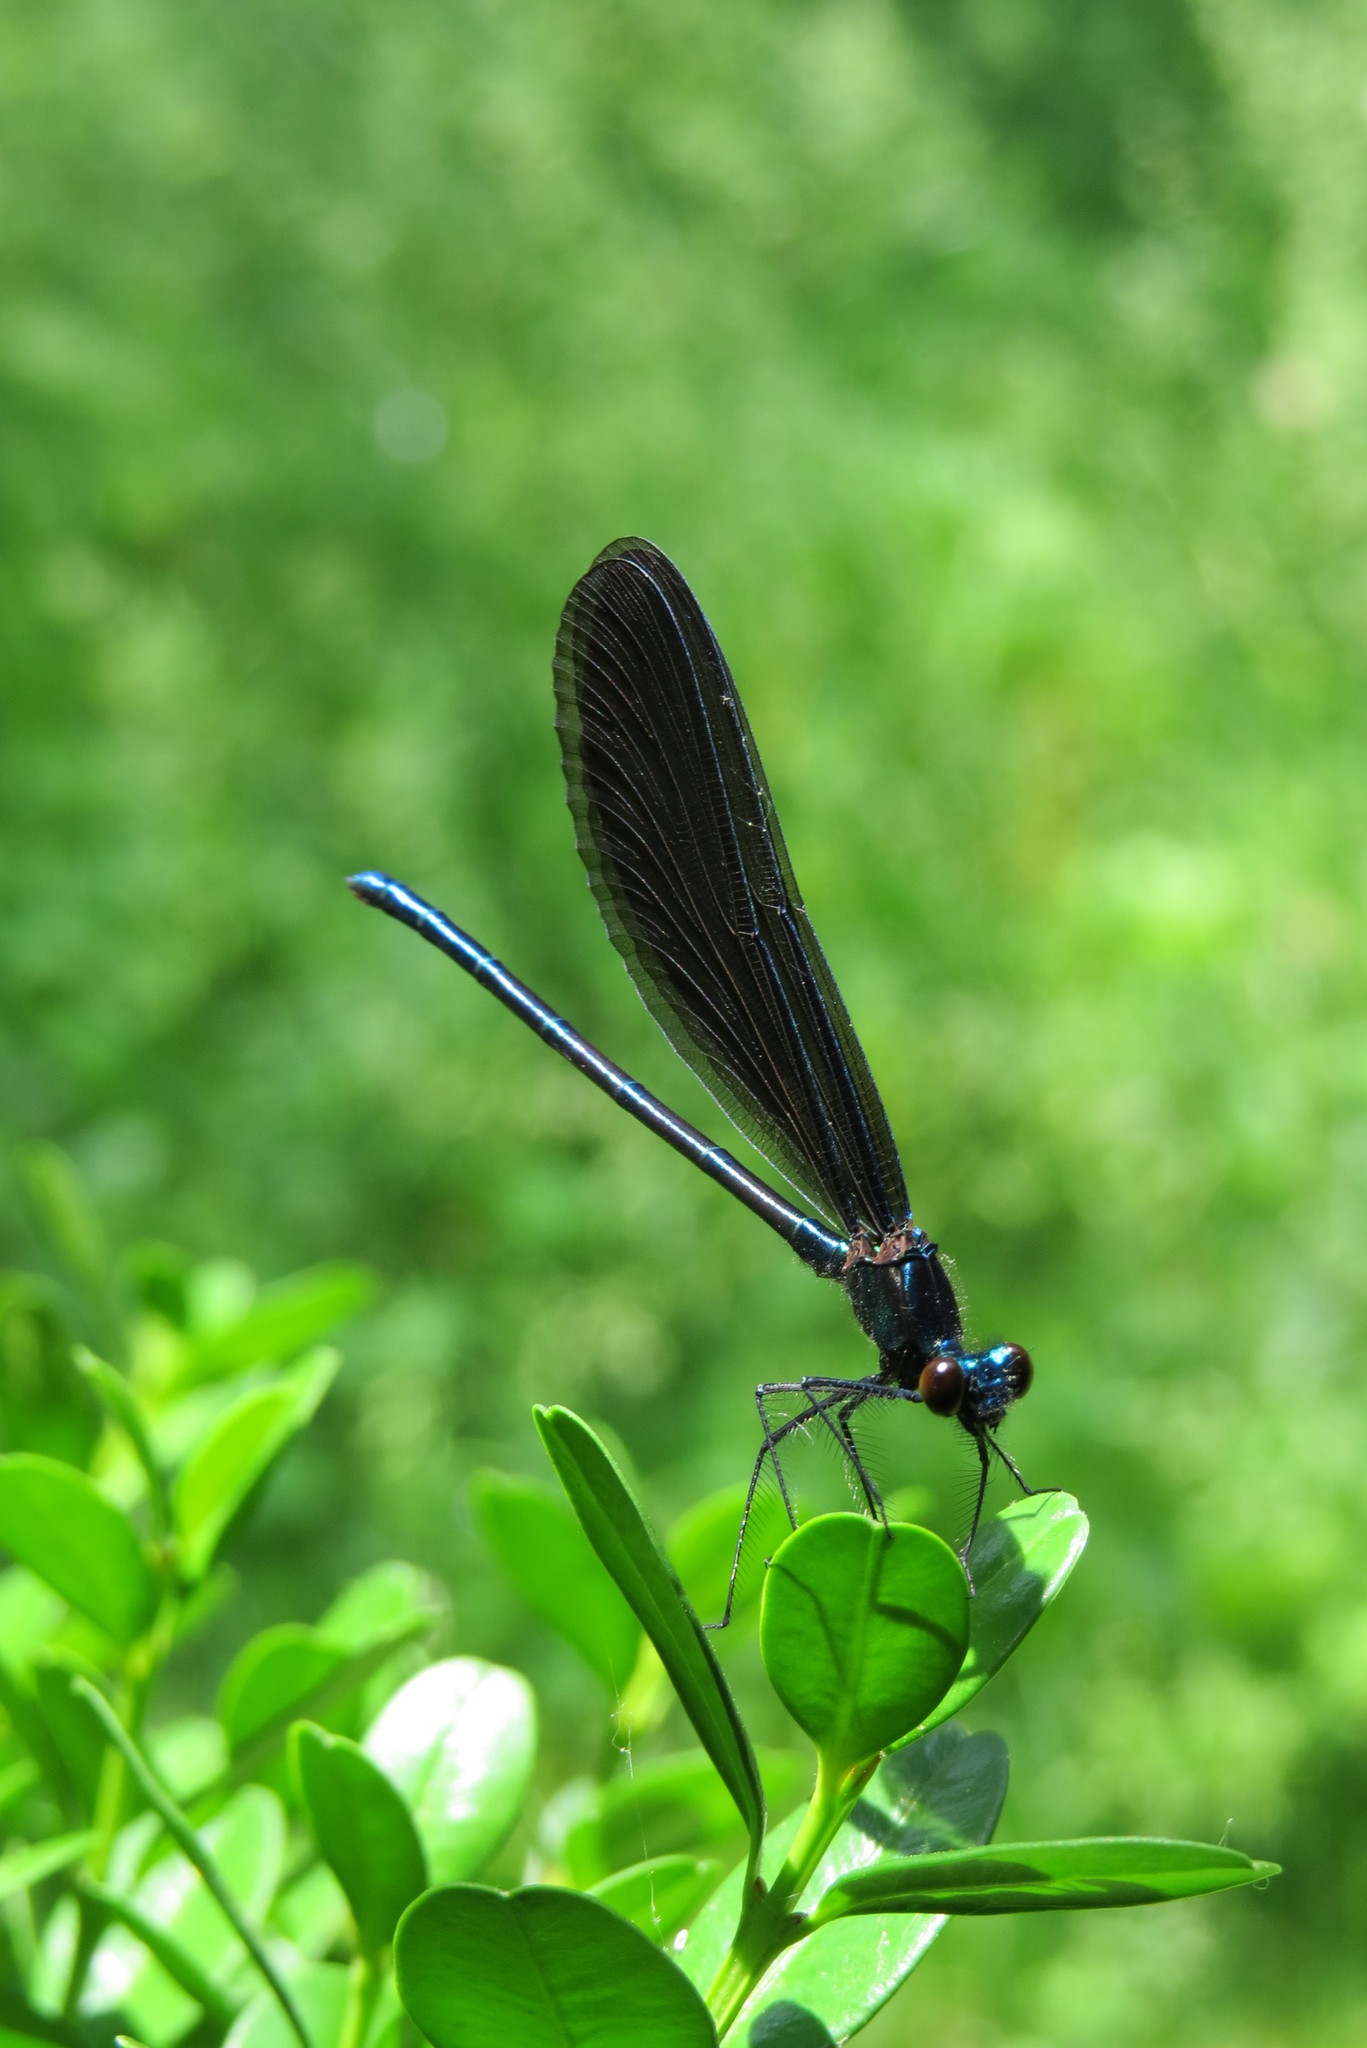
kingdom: Animalia
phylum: Arthropoda
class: Insecta
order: Odonata
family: Calopterygidae
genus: Calopteryx
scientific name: Calopteryx maculata
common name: Ebony jewelwing
